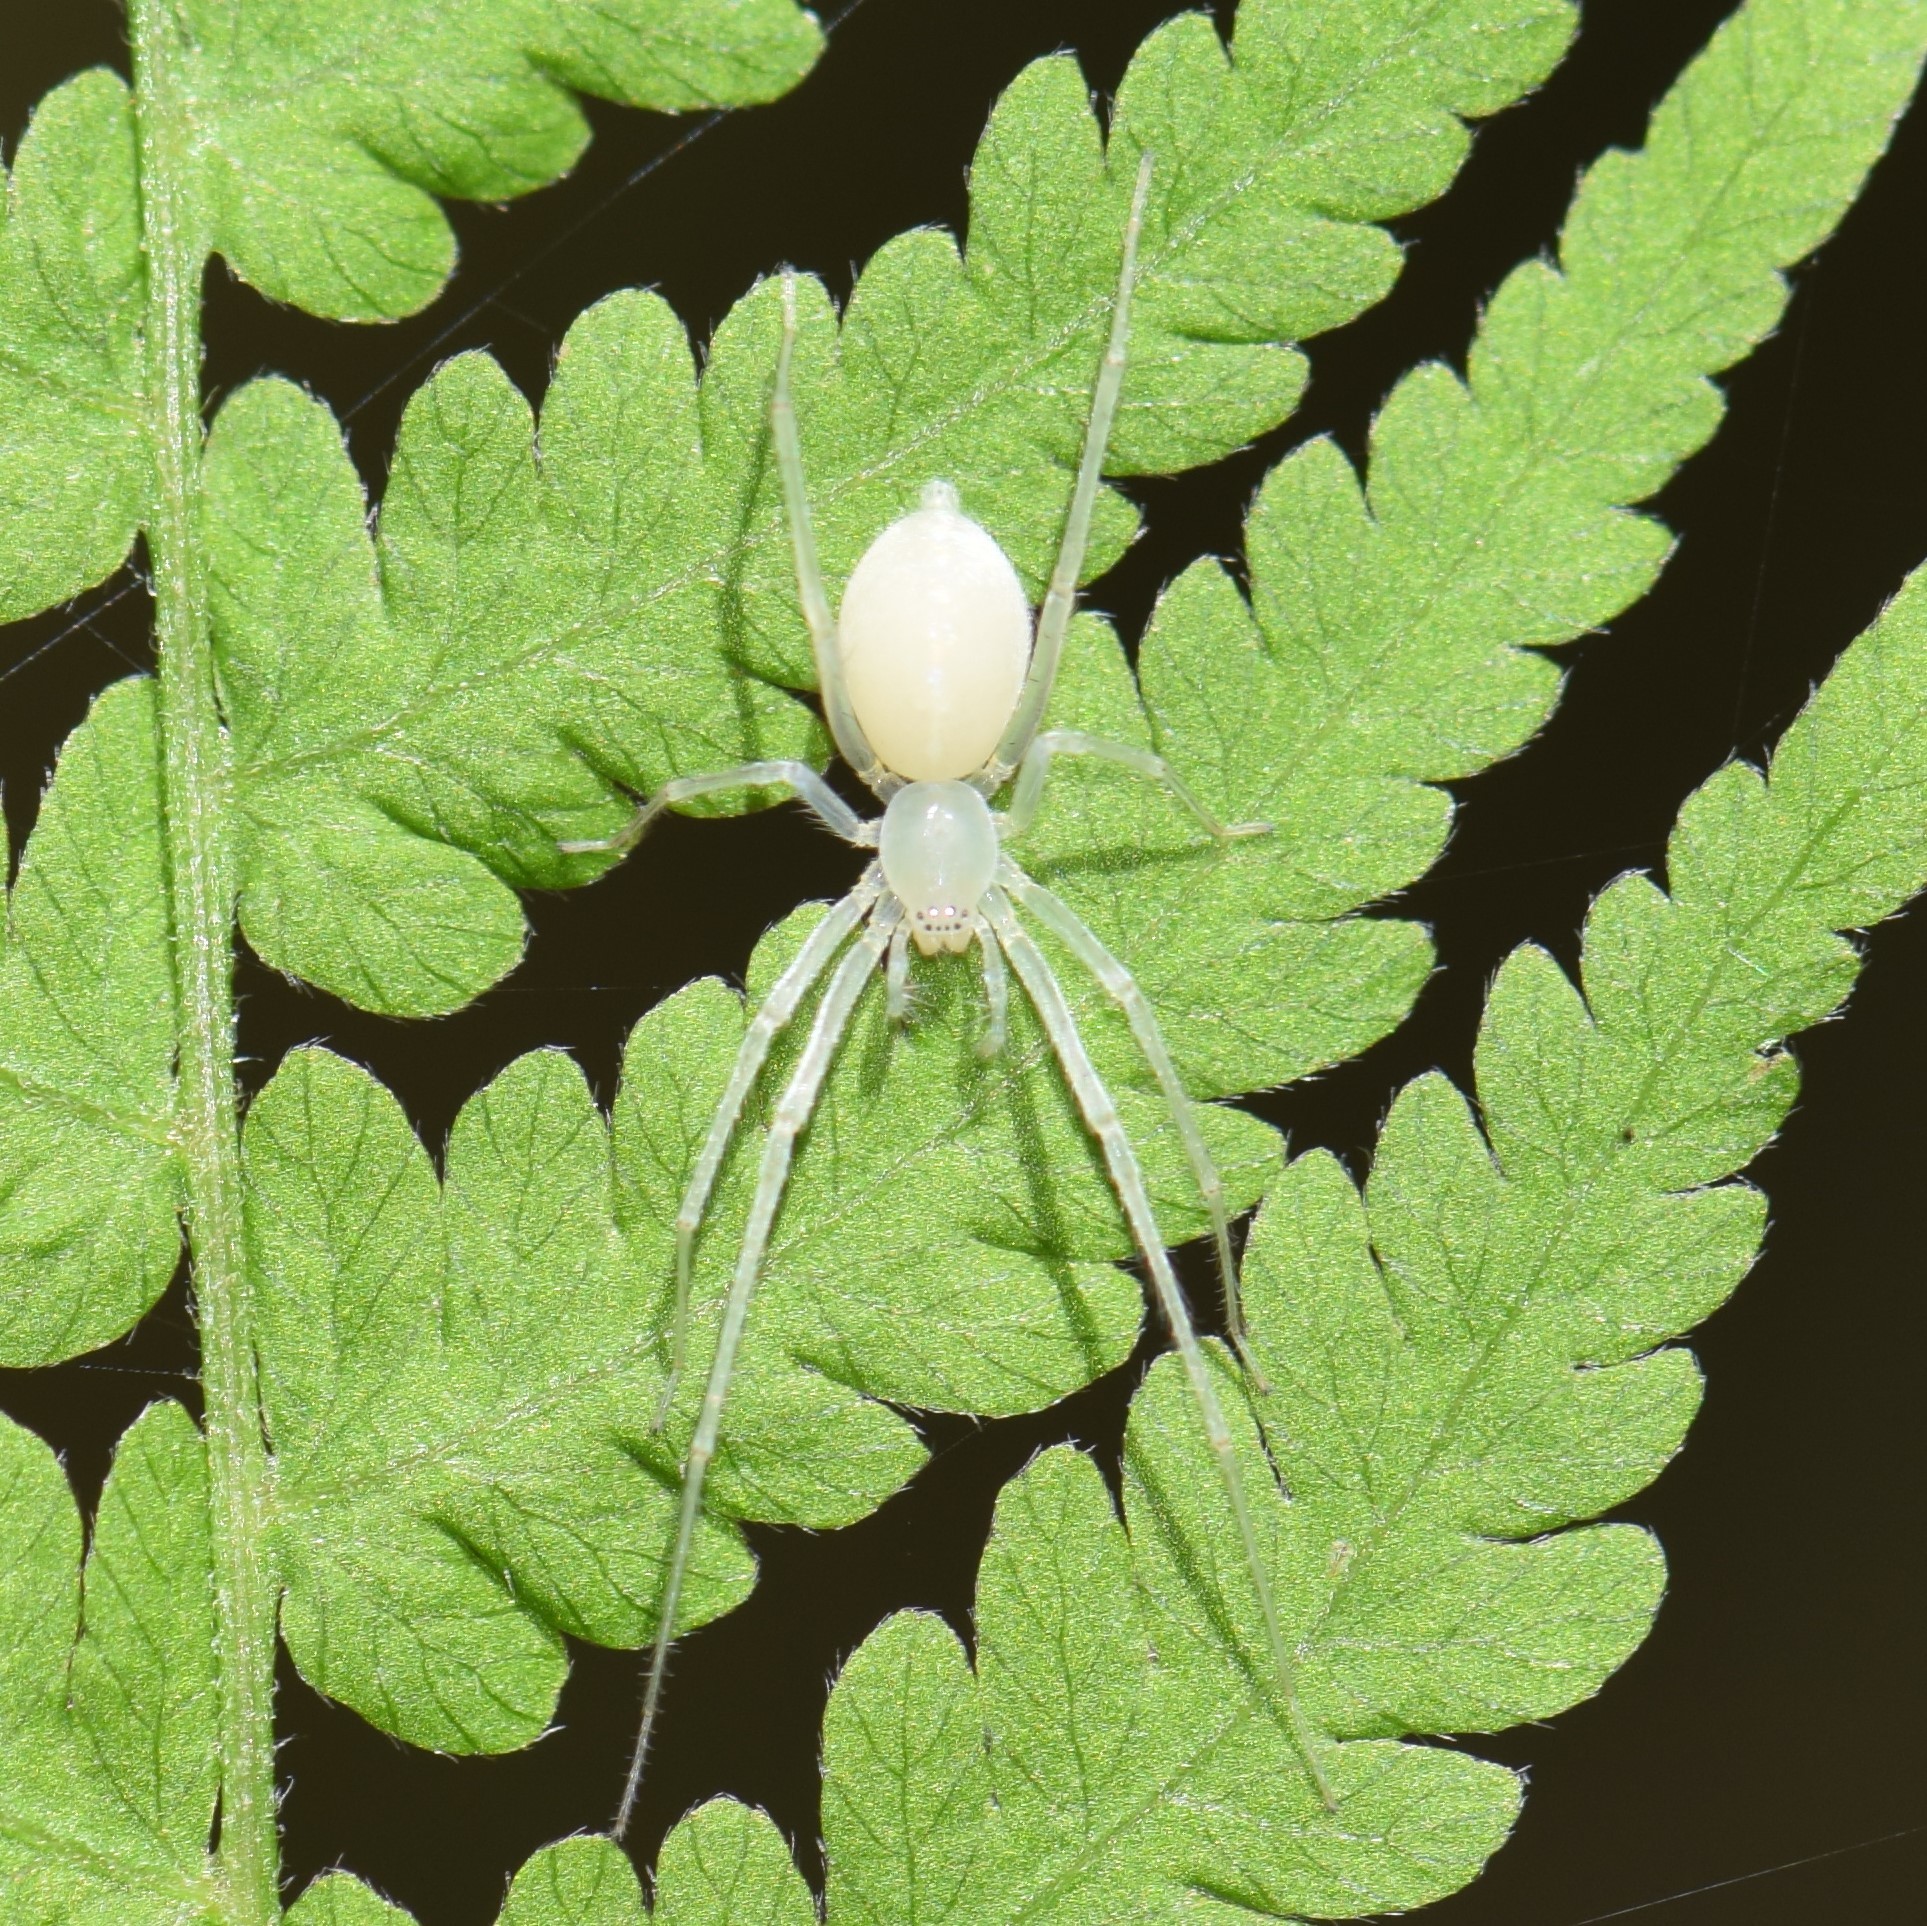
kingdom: Animalia
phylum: Arthropoda
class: Arachnida
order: Araneae
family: Anyphaenidae
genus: Wulfila
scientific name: Wulfila albens
